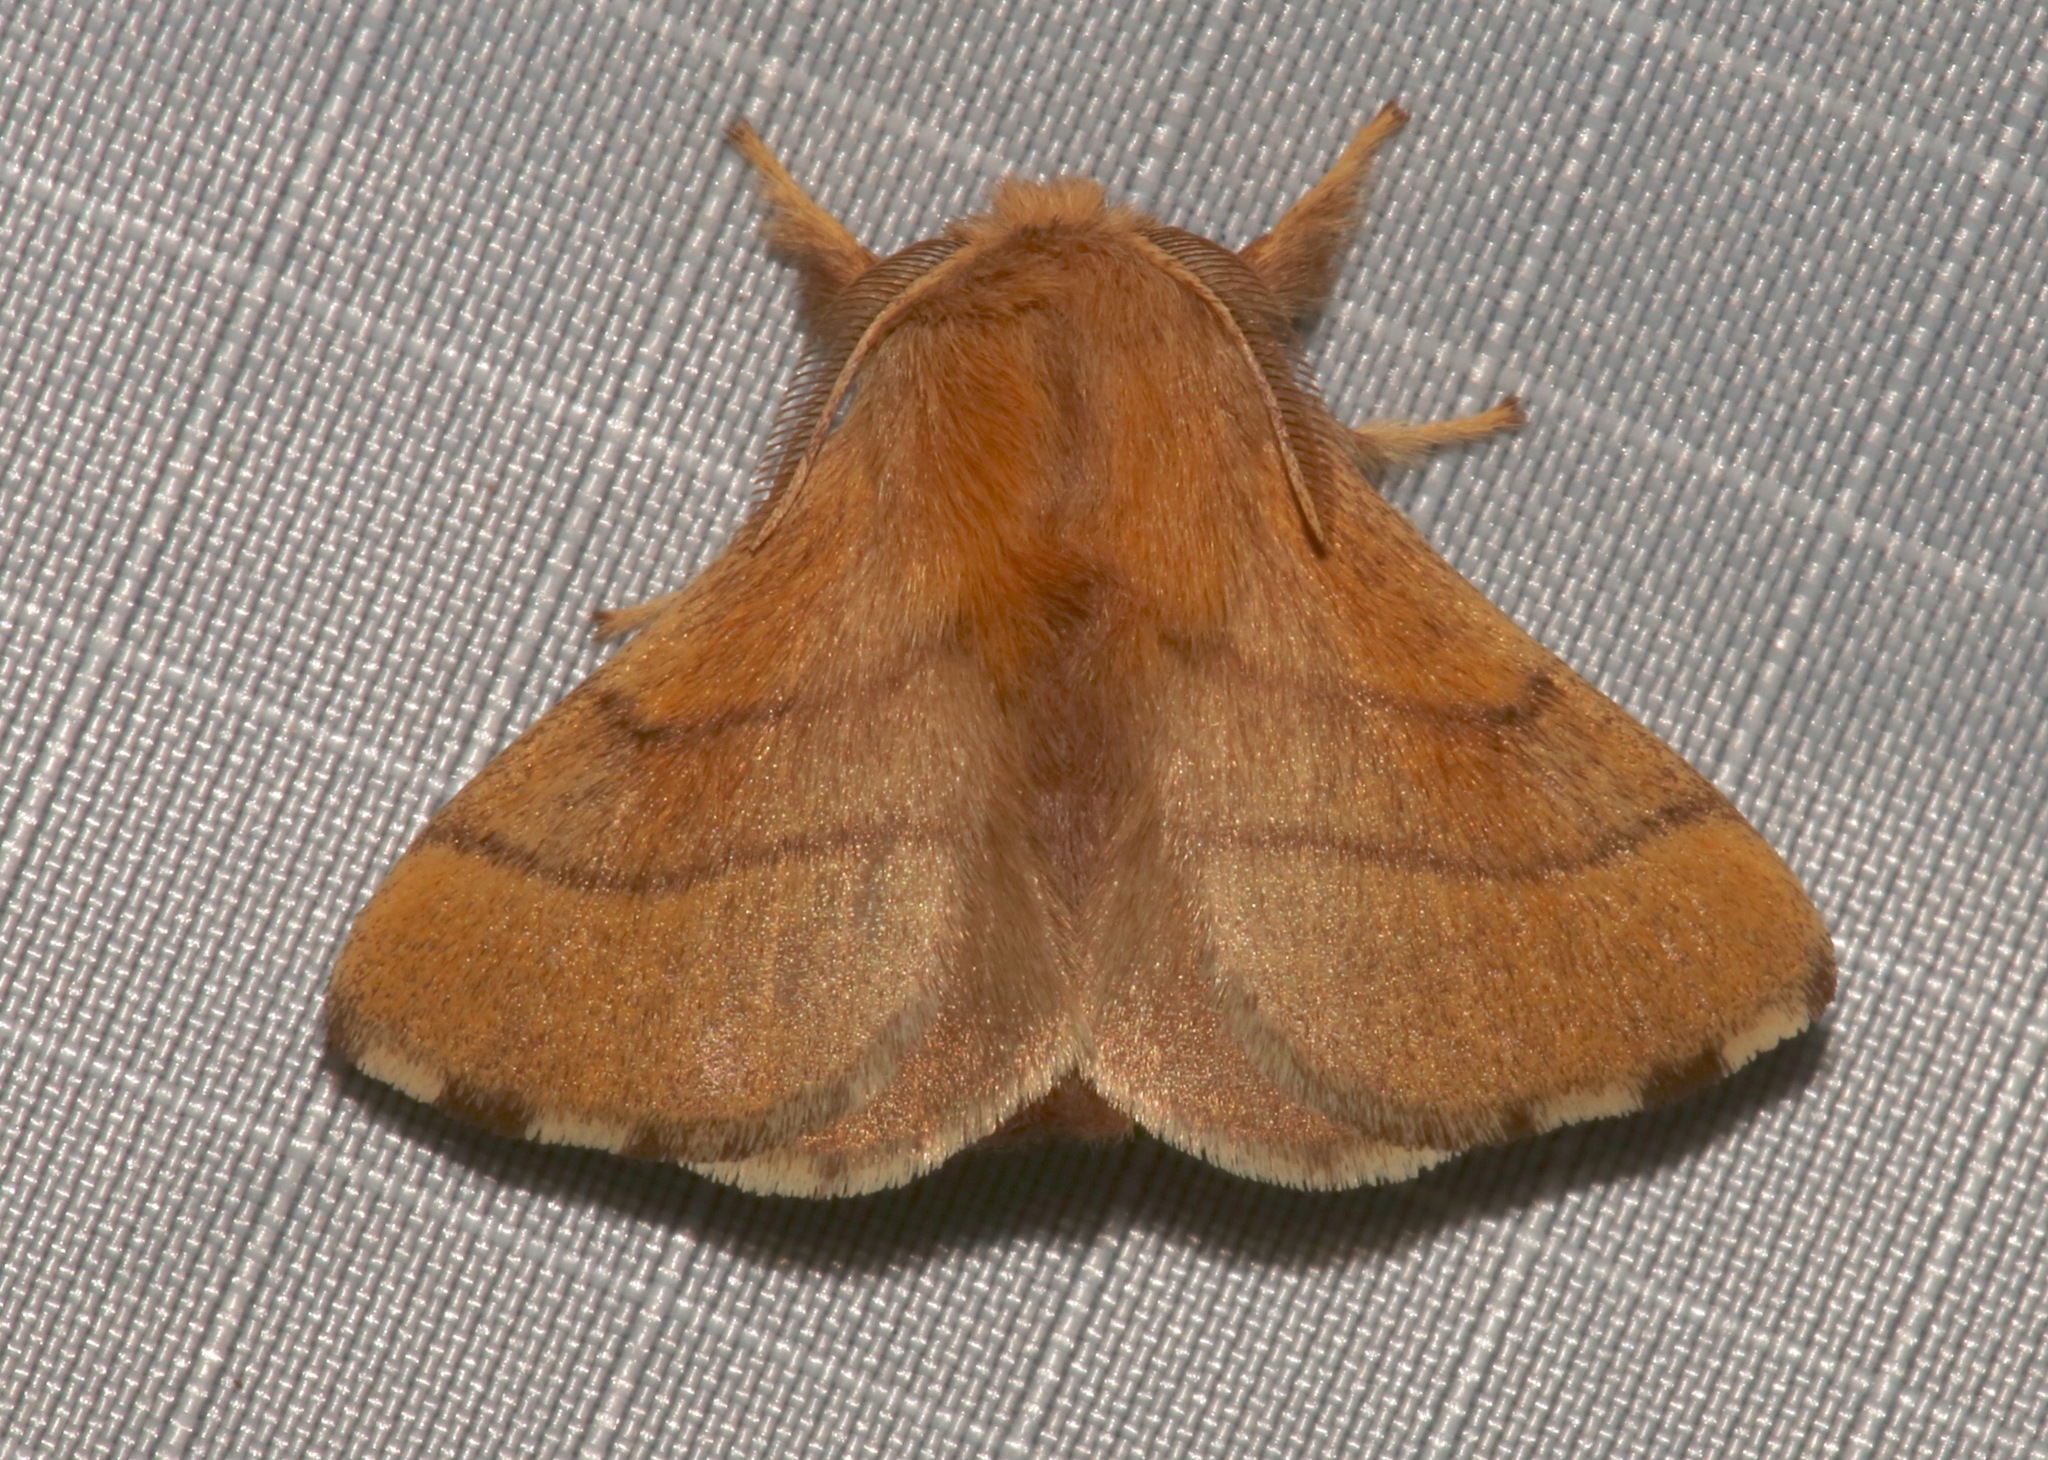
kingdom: Animalia
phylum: Arthropoda
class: Insecta
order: Lepidoptera
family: Lasiocampidae
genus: Malacosoma
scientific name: Malacosoma disstria
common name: Forest tent caterpillar
